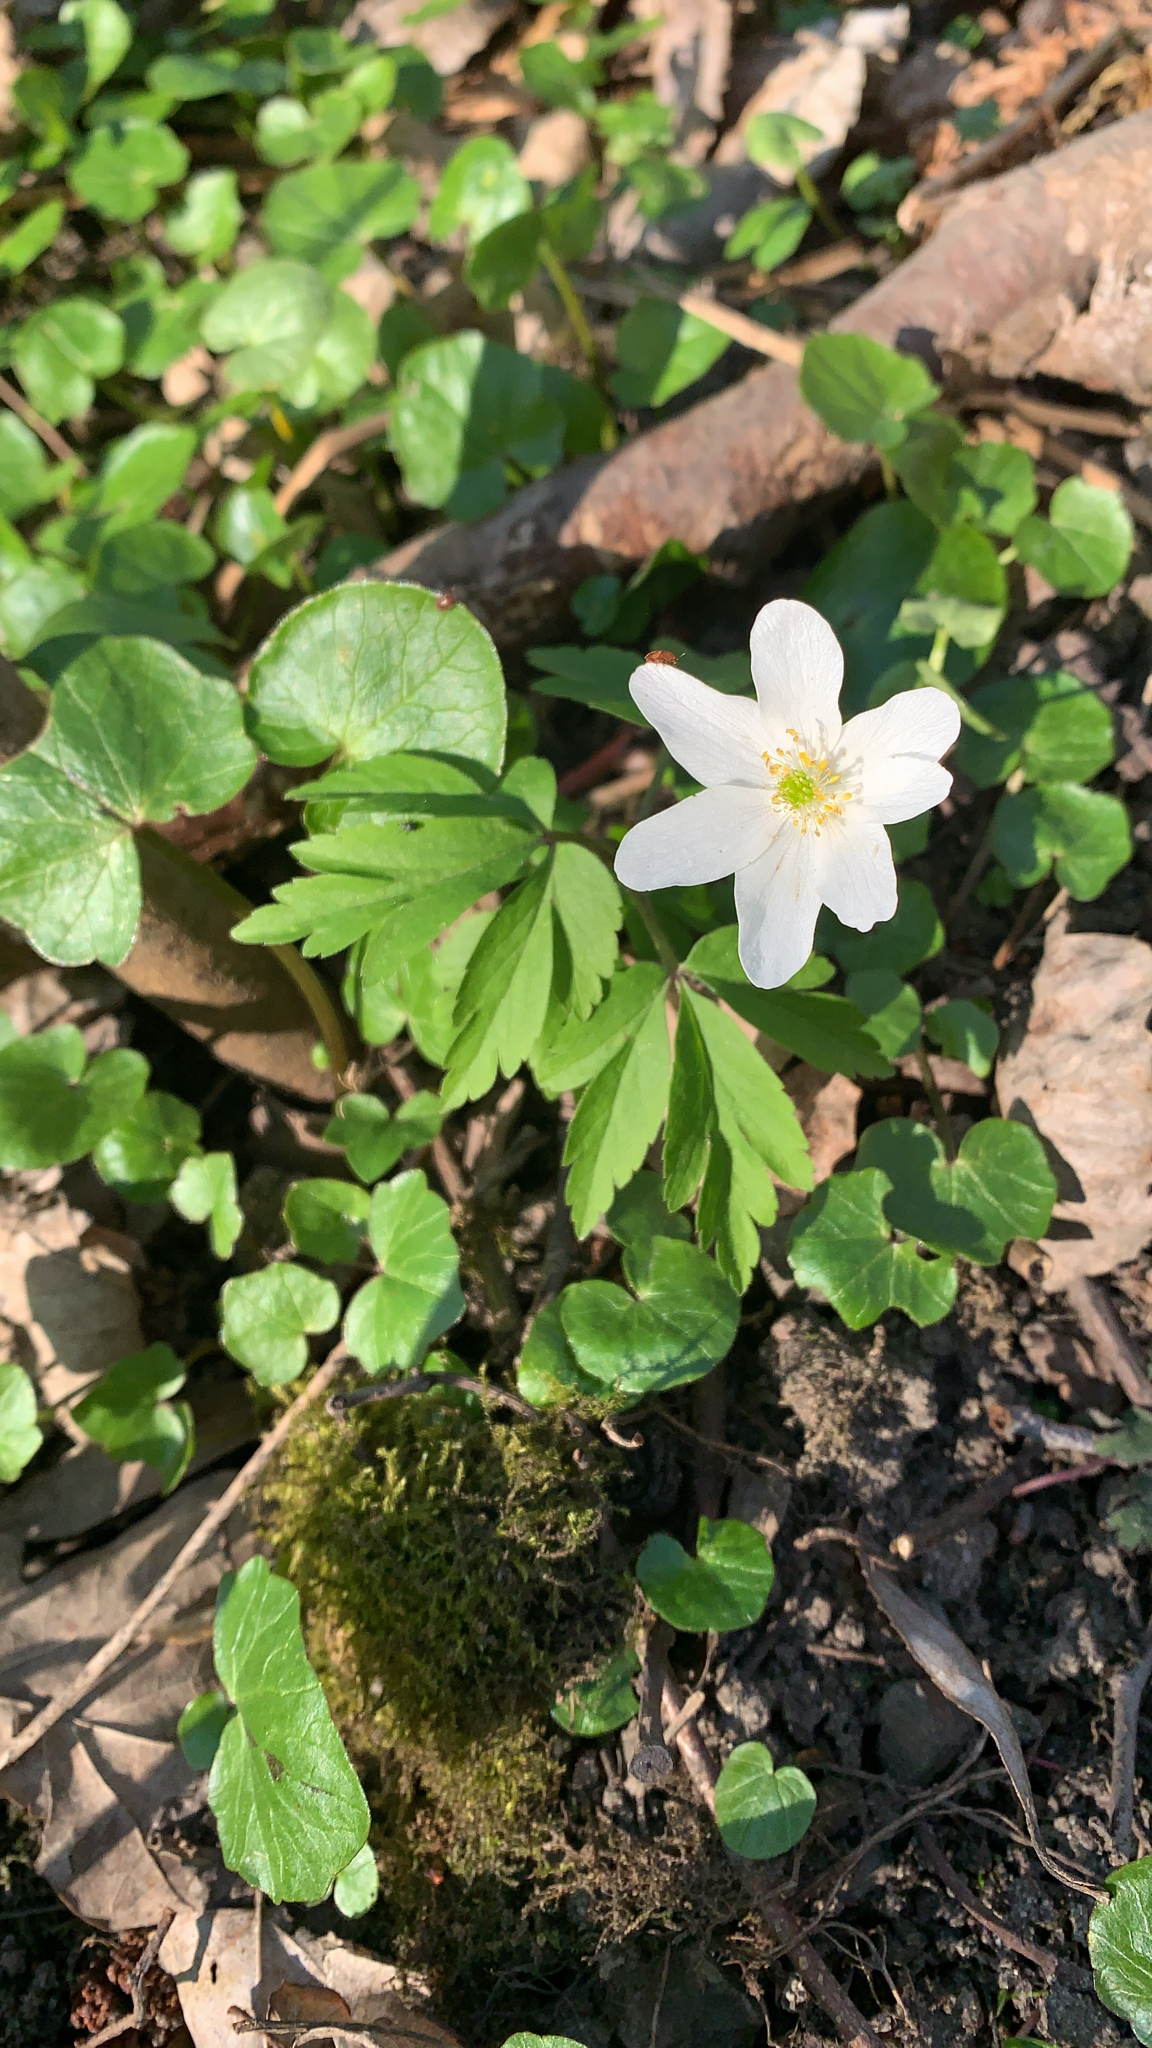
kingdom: Plantae
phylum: Tracheophyta
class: Magnoliopsida
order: Ranunculales
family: Ranunculaceae
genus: Anemone
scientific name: Anemone nemorosa
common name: Wood anemone
